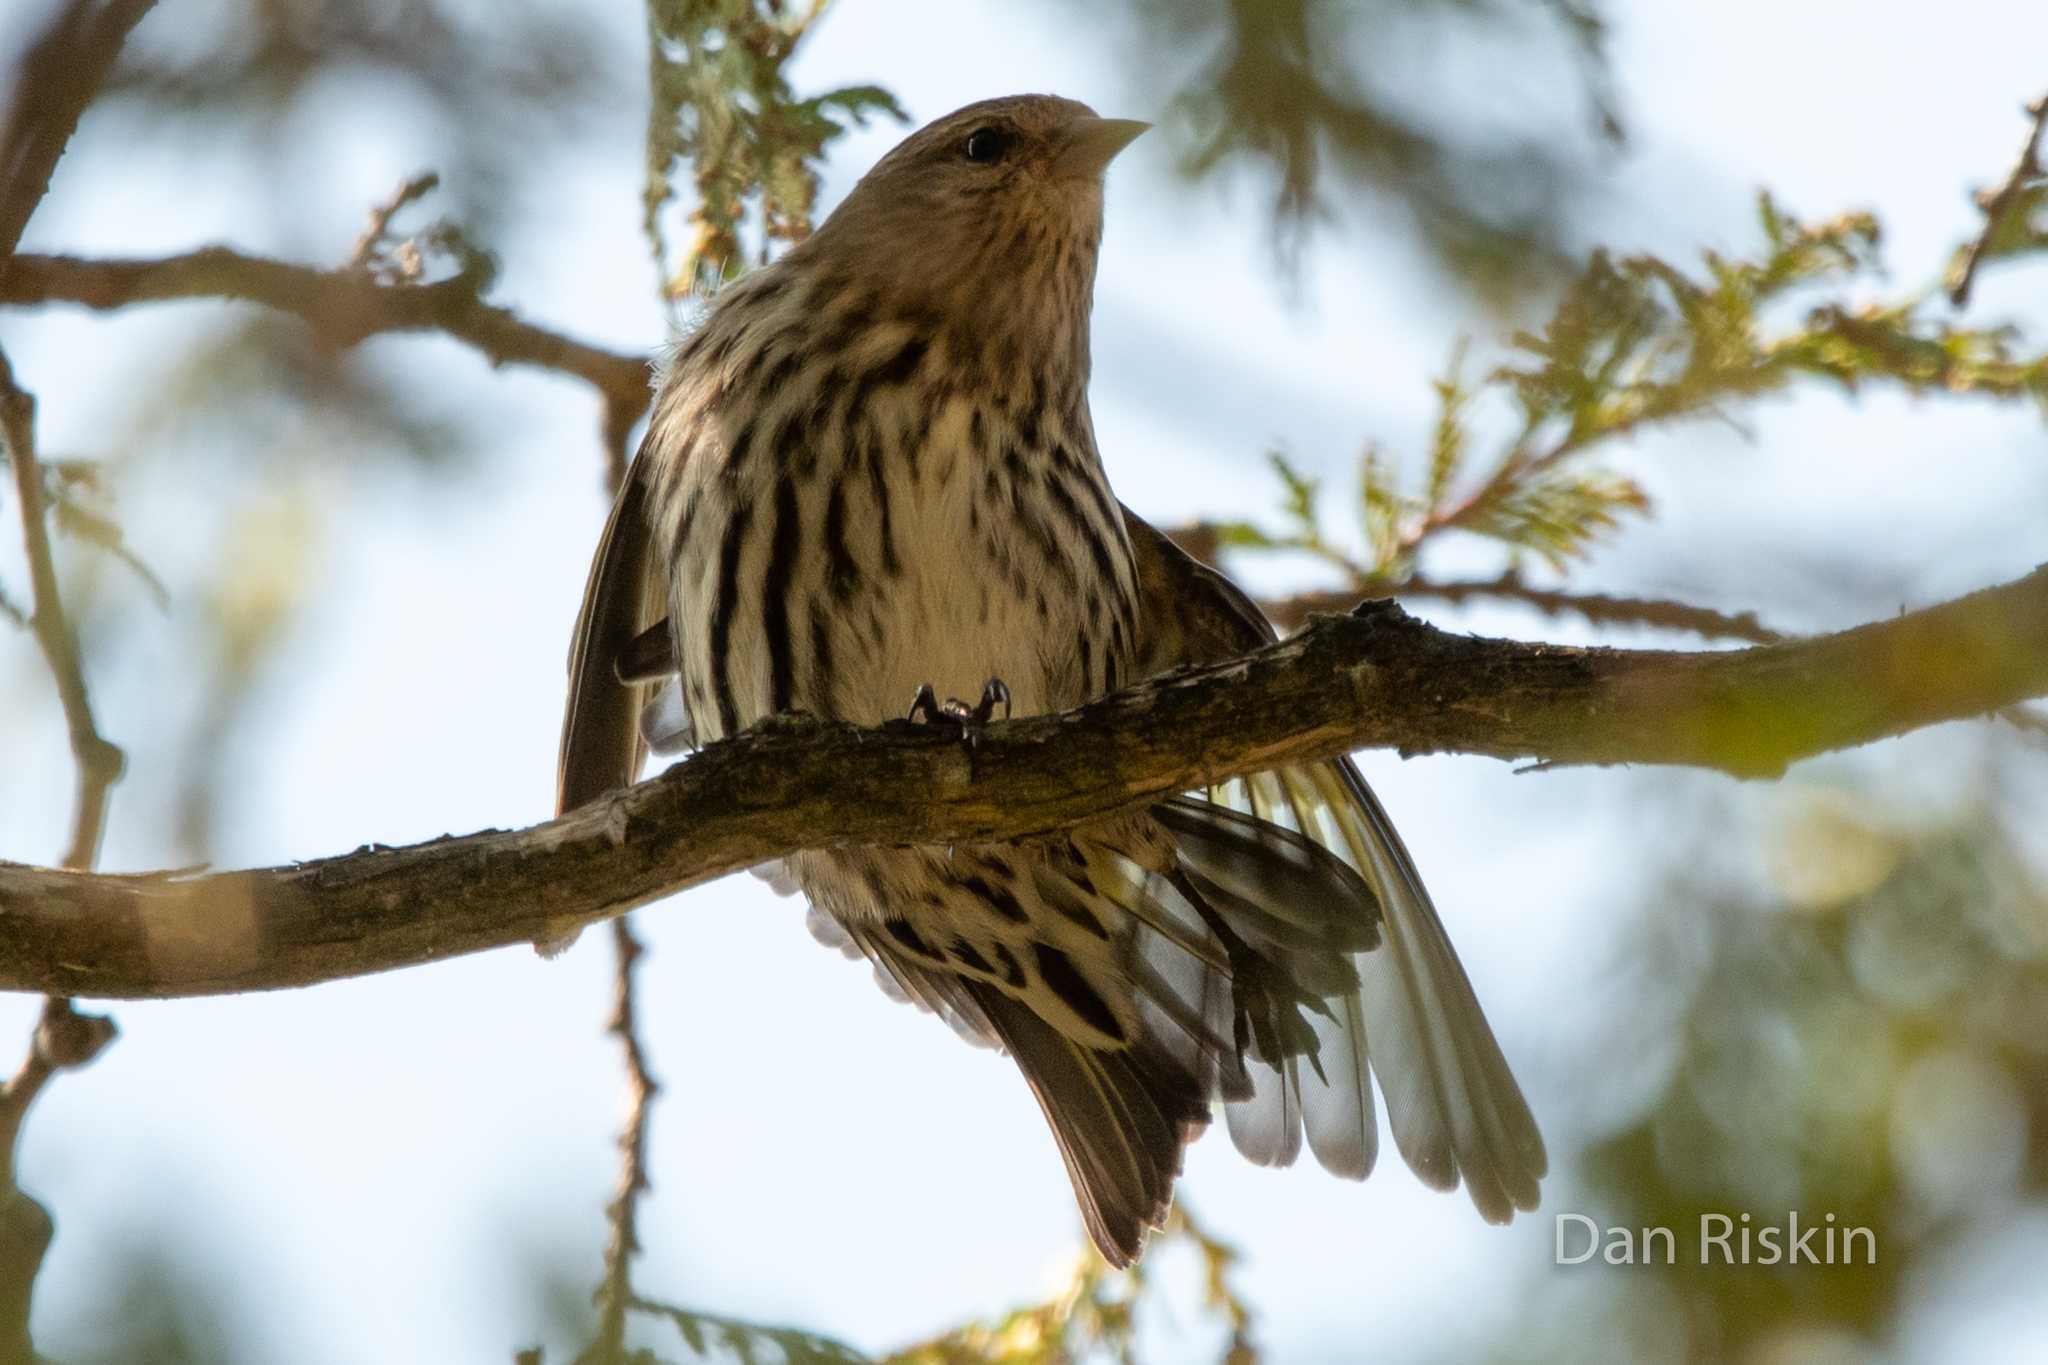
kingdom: Animalia
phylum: Chordata
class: Aves
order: Passeriformes
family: Fringillidae
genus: Spinus
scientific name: Spinus pinus
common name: Pine siskin
